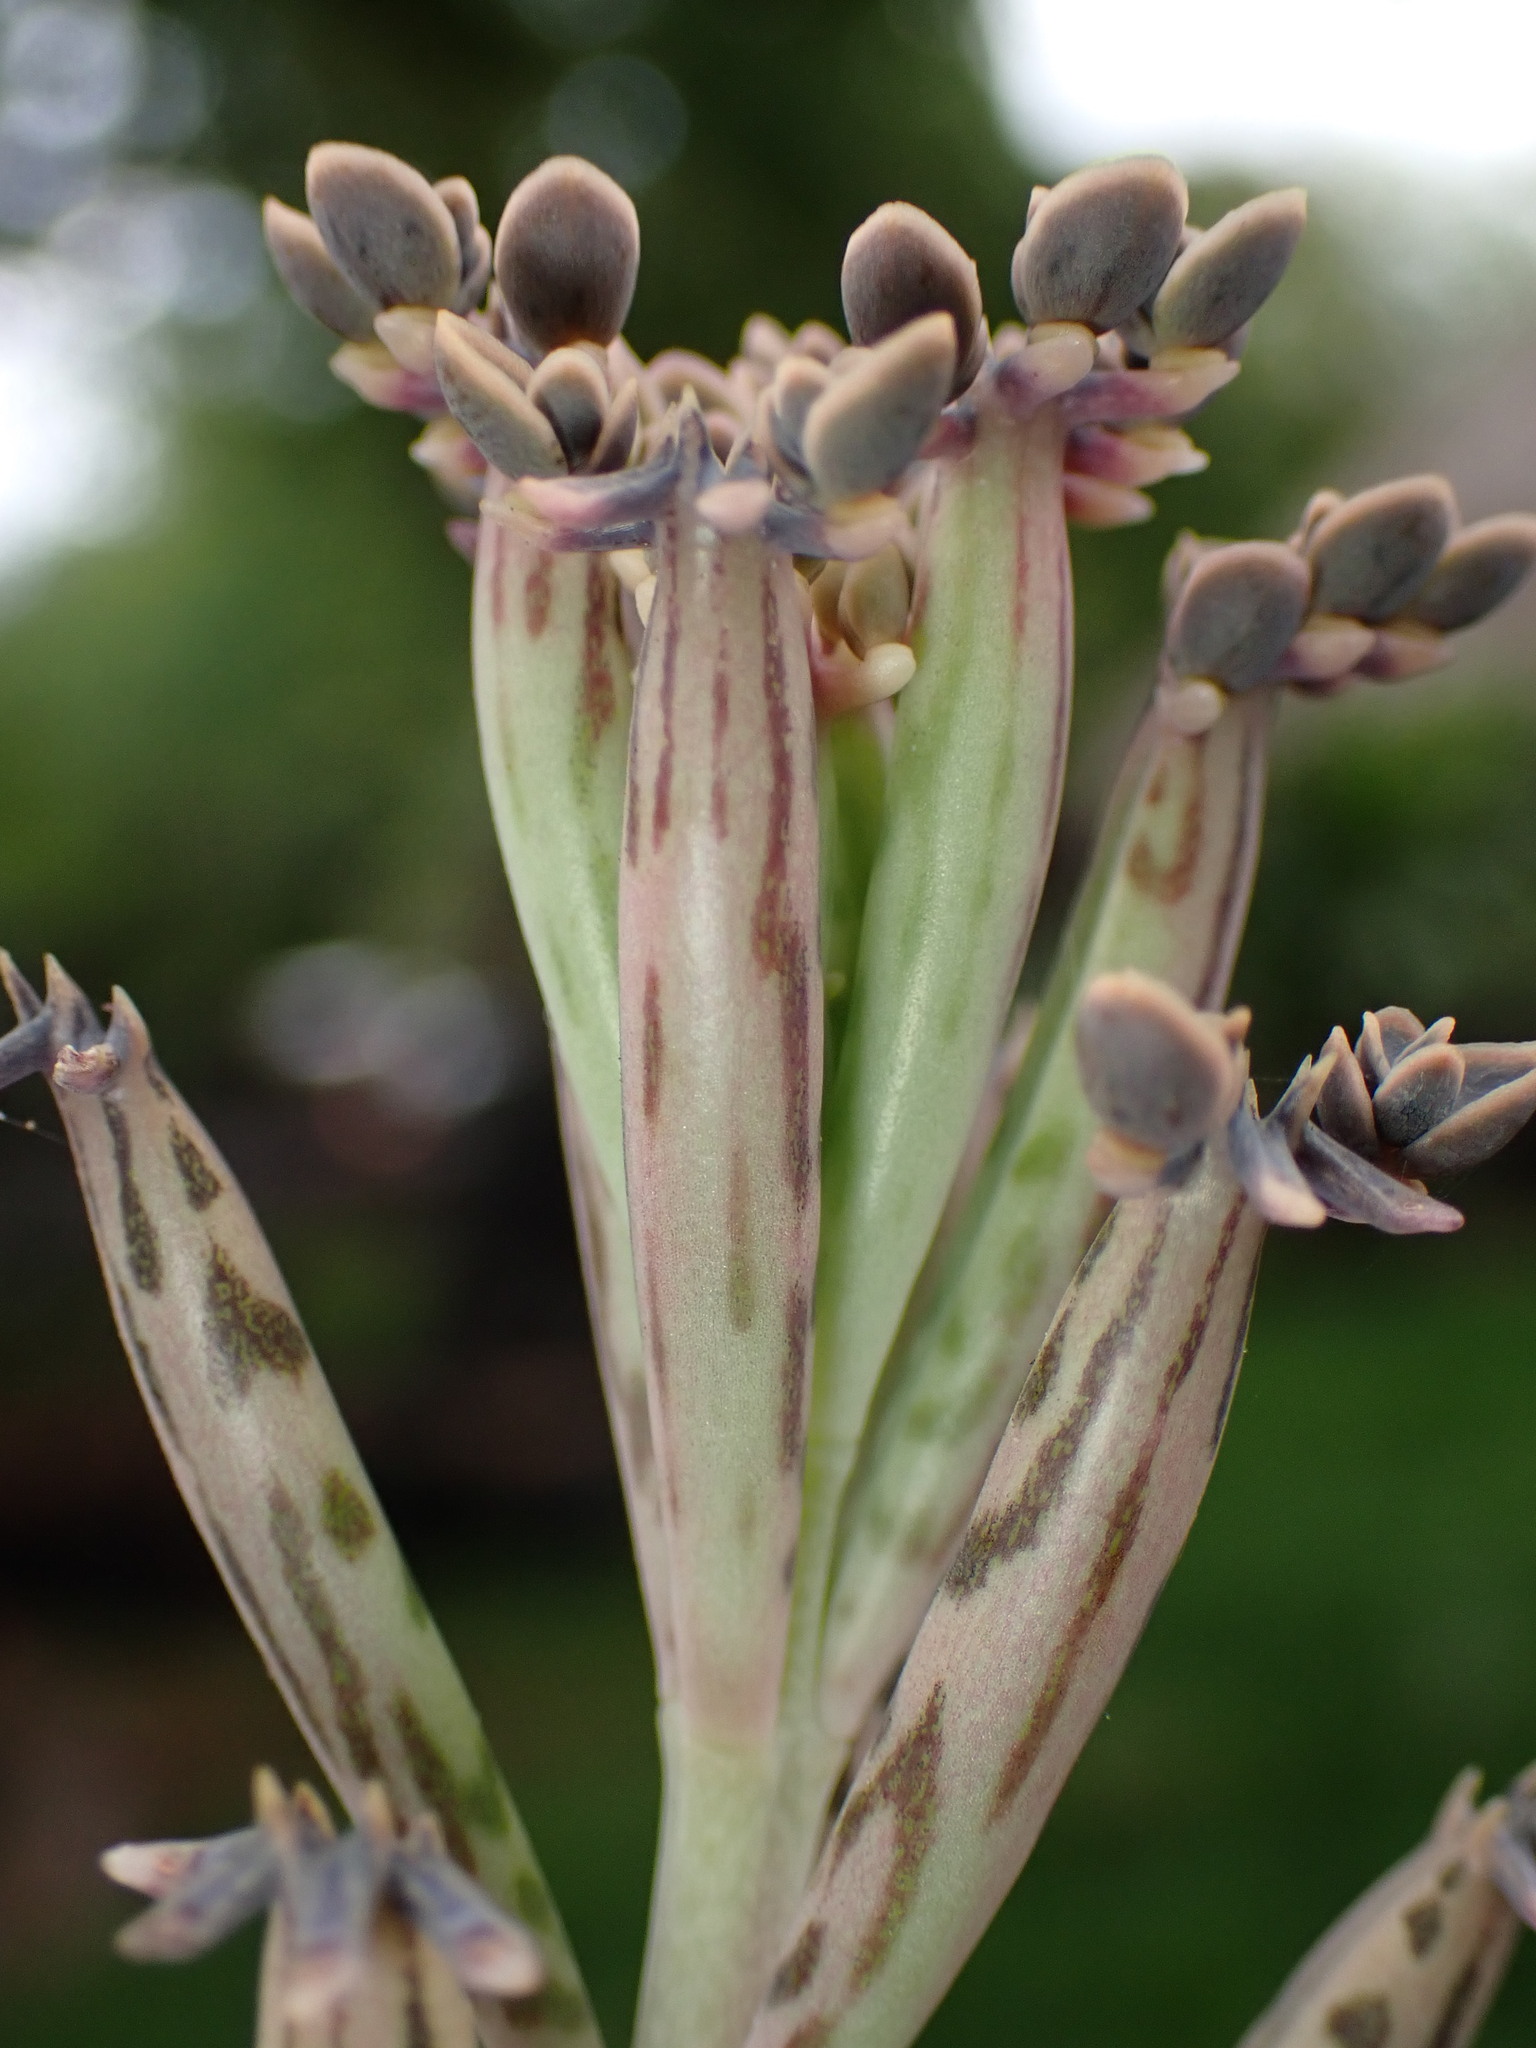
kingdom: Plantae
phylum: Tracheophyta
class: Magnoliopsida
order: Saxifragales
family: Crassulaceae
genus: Kalanchoe
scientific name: Kalanchoe delagoensis
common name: Chandelier plant
